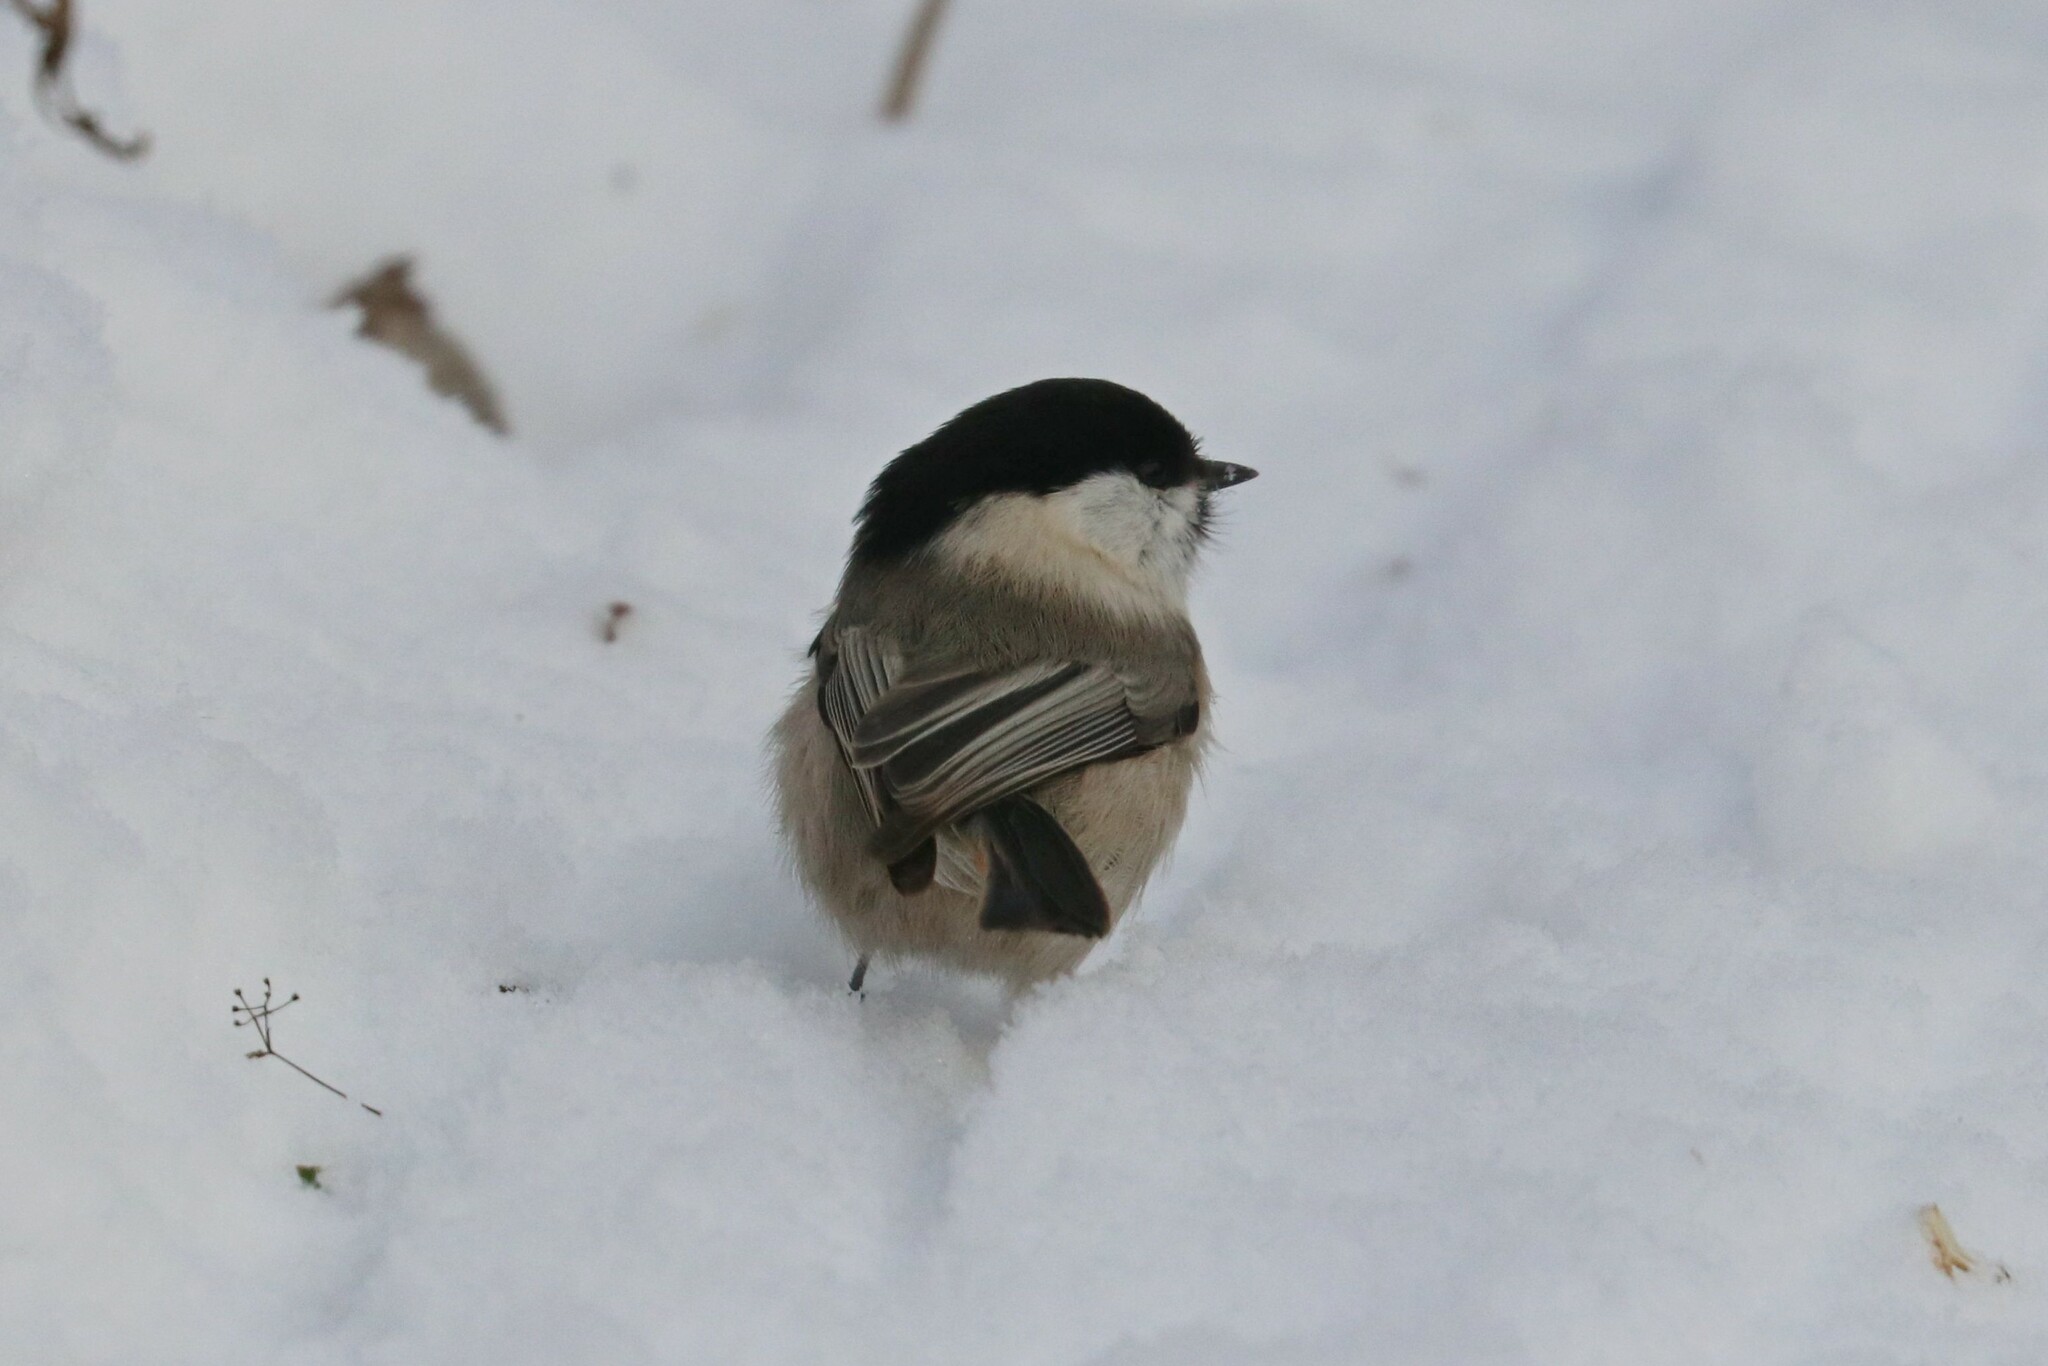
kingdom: Animalia
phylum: Chordata
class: Aves
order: Passeriformes
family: Paridae
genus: Poecile
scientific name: Poecile montanus
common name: Willow tit
